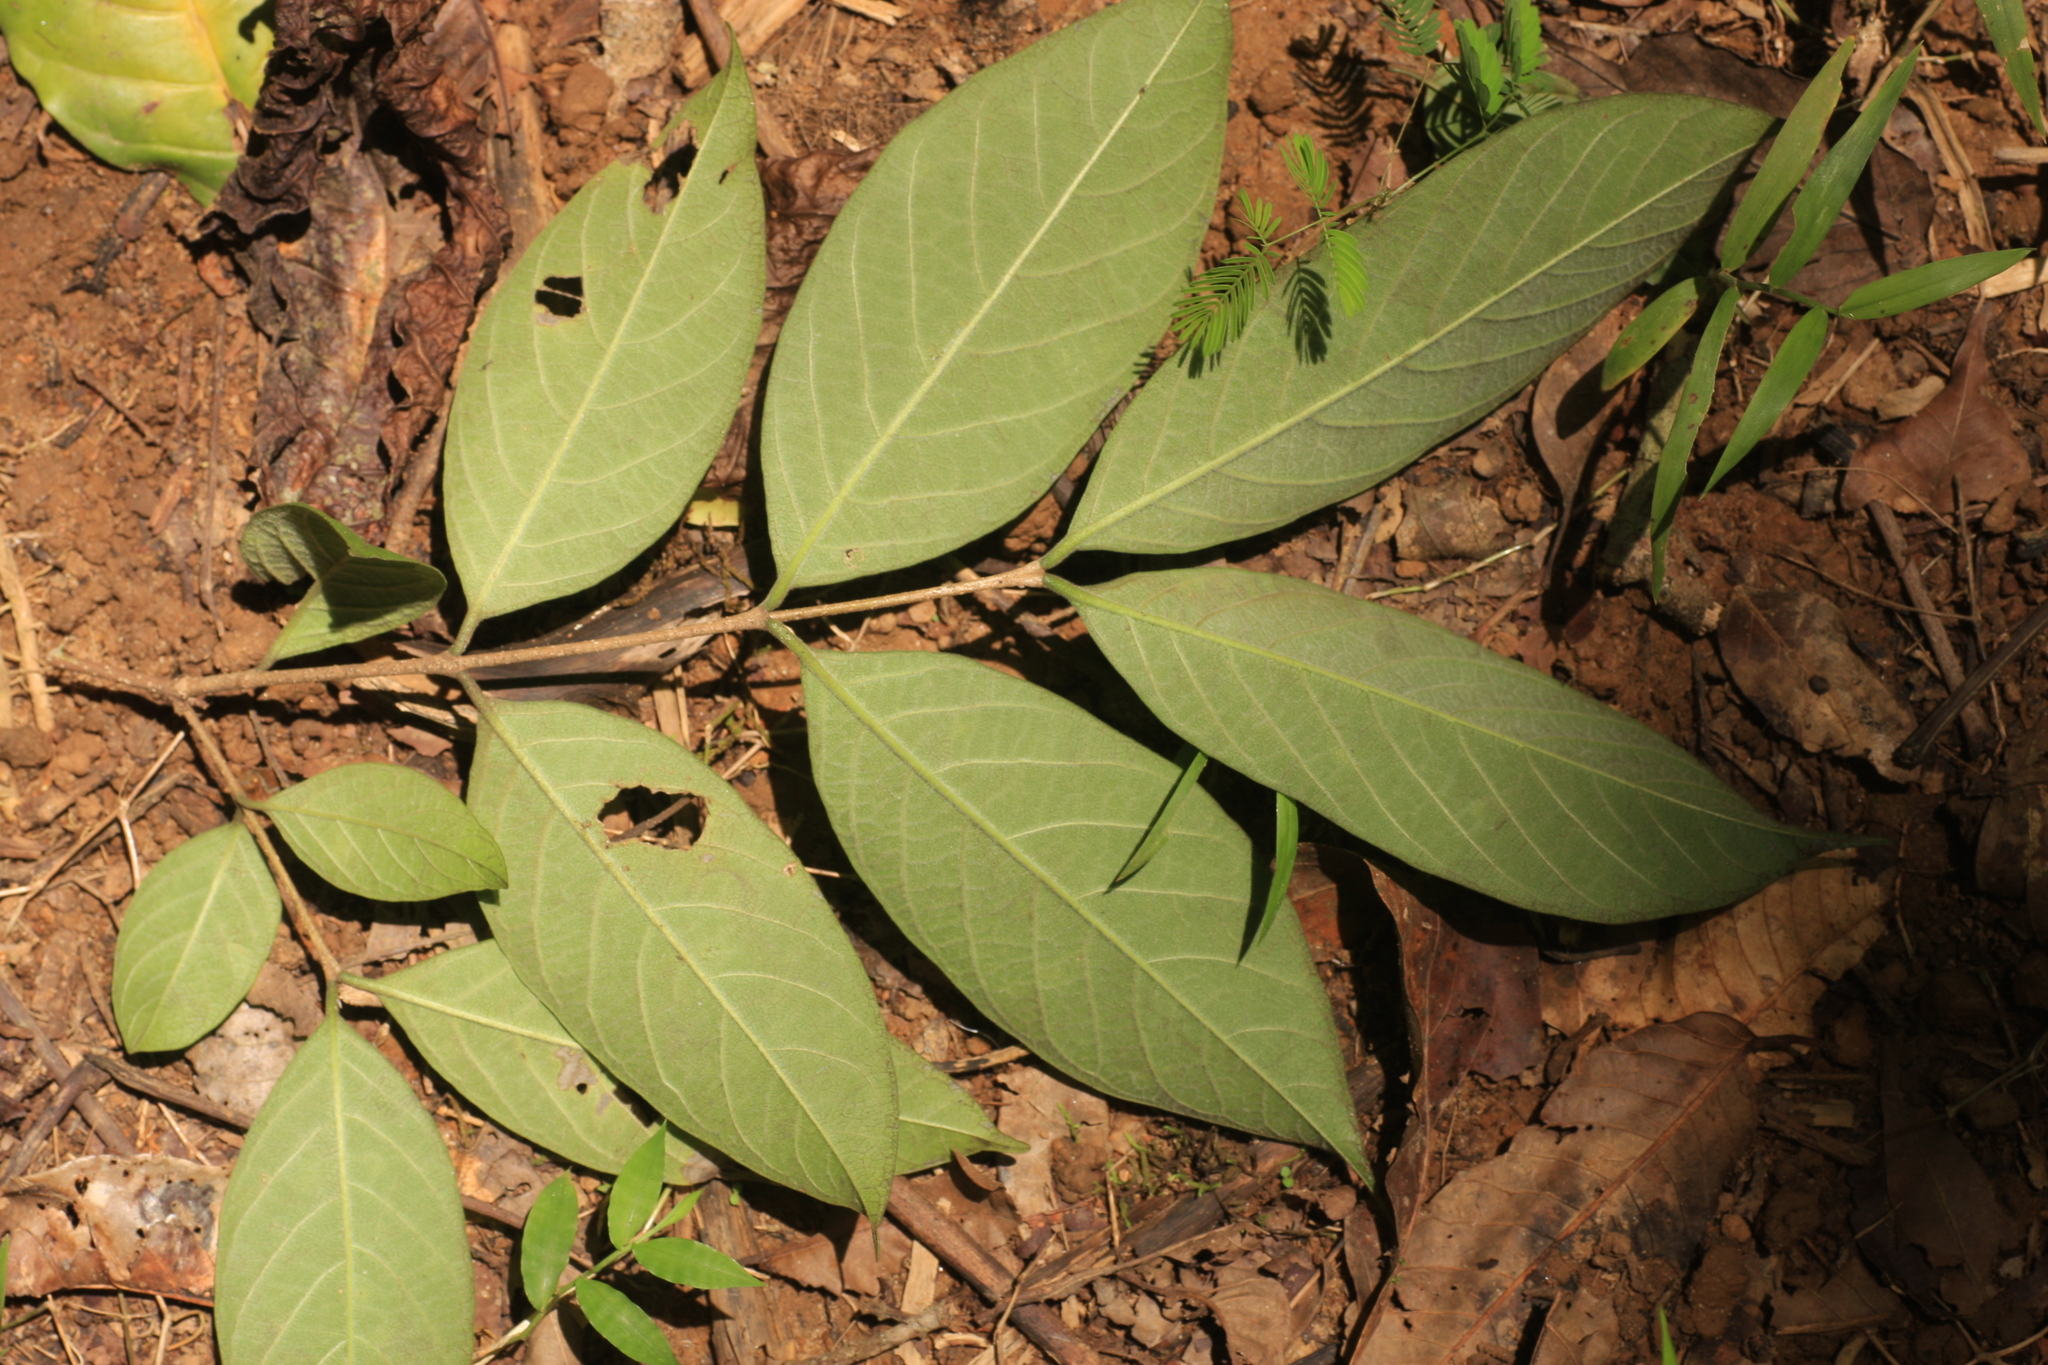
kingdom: Plantae
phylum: Tracheophyta
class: Magnoliopsida
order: Gentianales
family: Apocynaceae
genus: Wrightia
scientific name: Wrightia arborea
